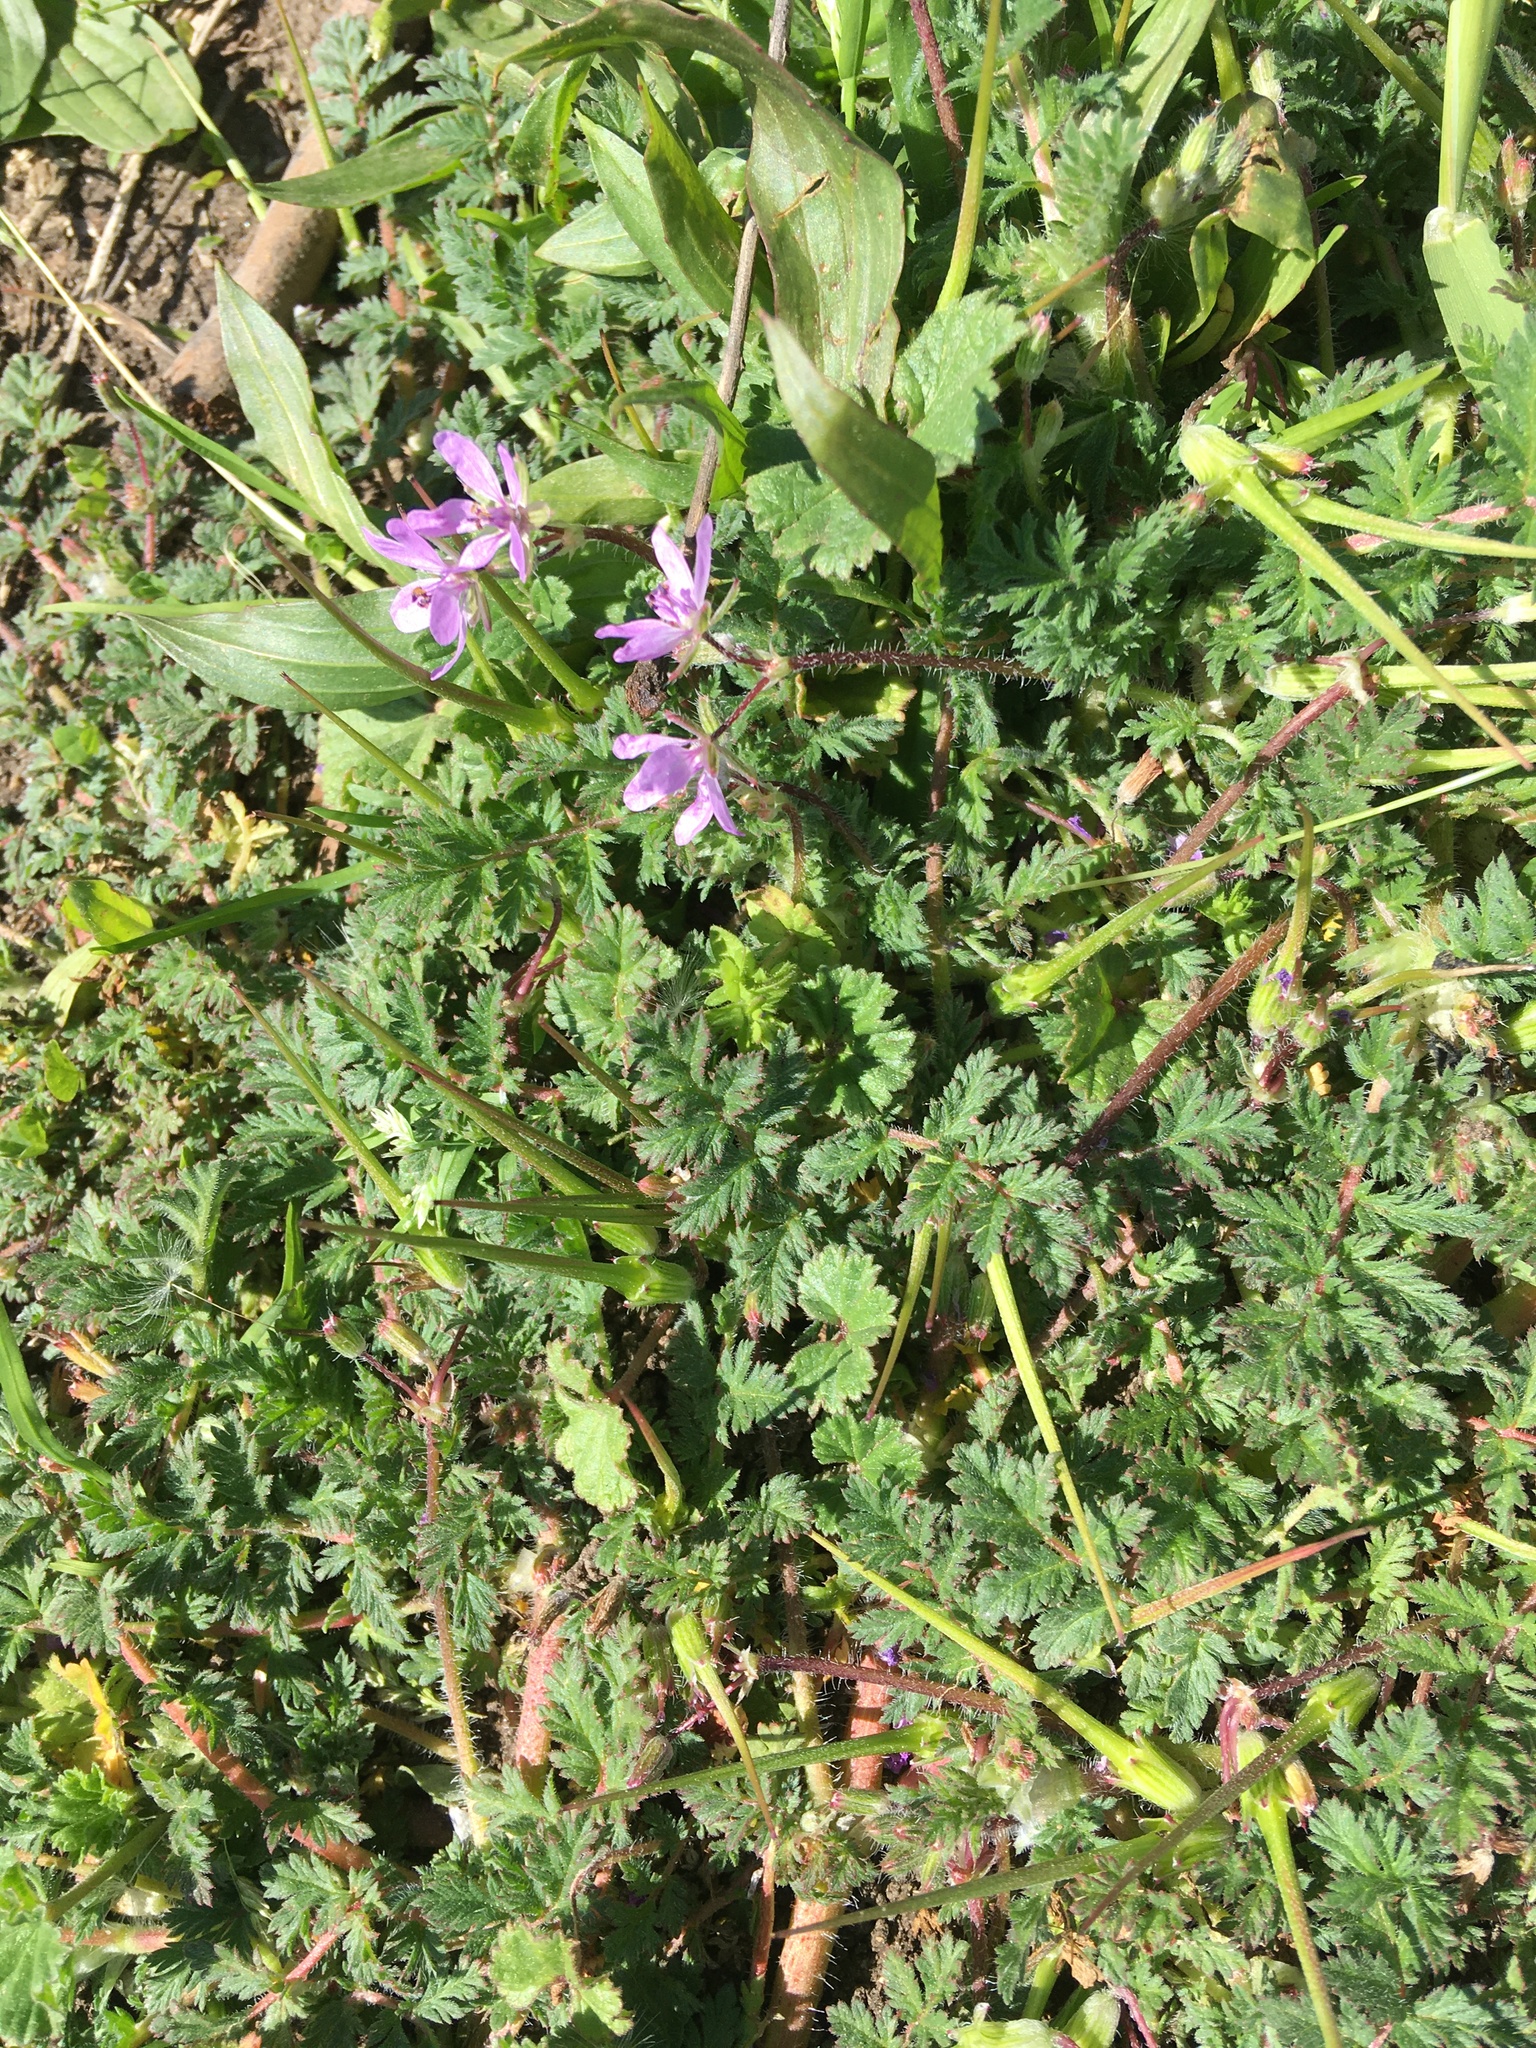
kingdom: Plantae
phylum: Tracheophyta
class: Magnoliopsida
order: Geraniales
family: Geraniaceae
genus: Erodium
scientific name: Erodium cicutarium
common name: Common stork's-bill
